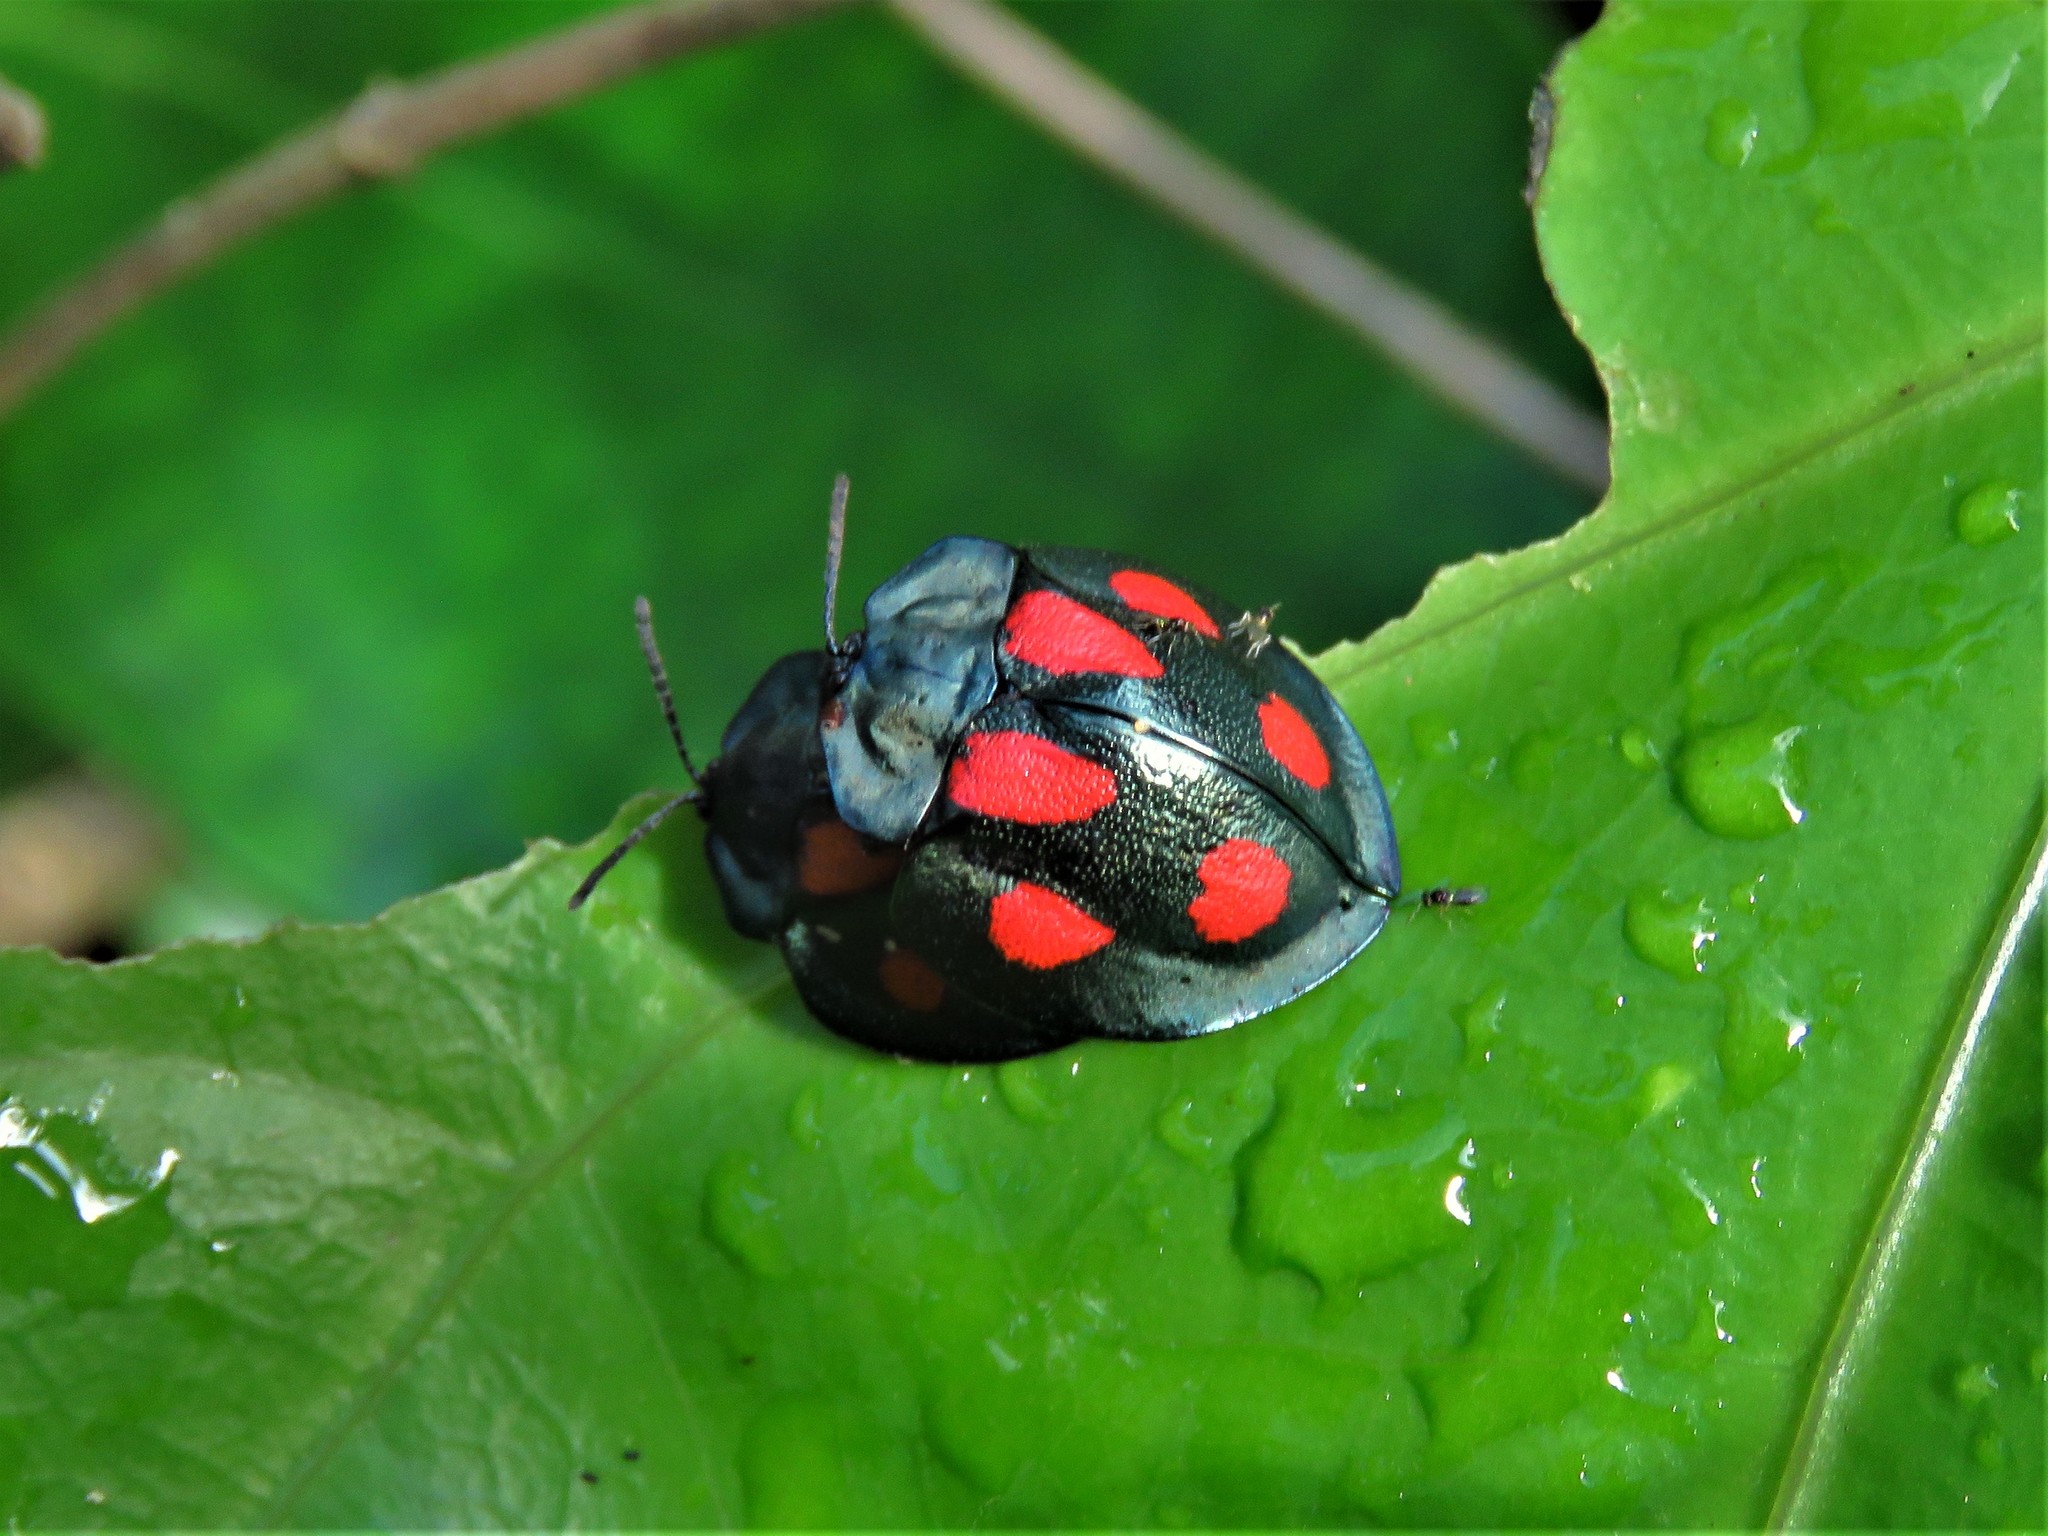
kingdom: Animalia
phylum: Arthropoda
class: Insecta
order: Coleoptera
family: Chrysomelidae
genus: Stolas
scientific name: Stolas illustris
